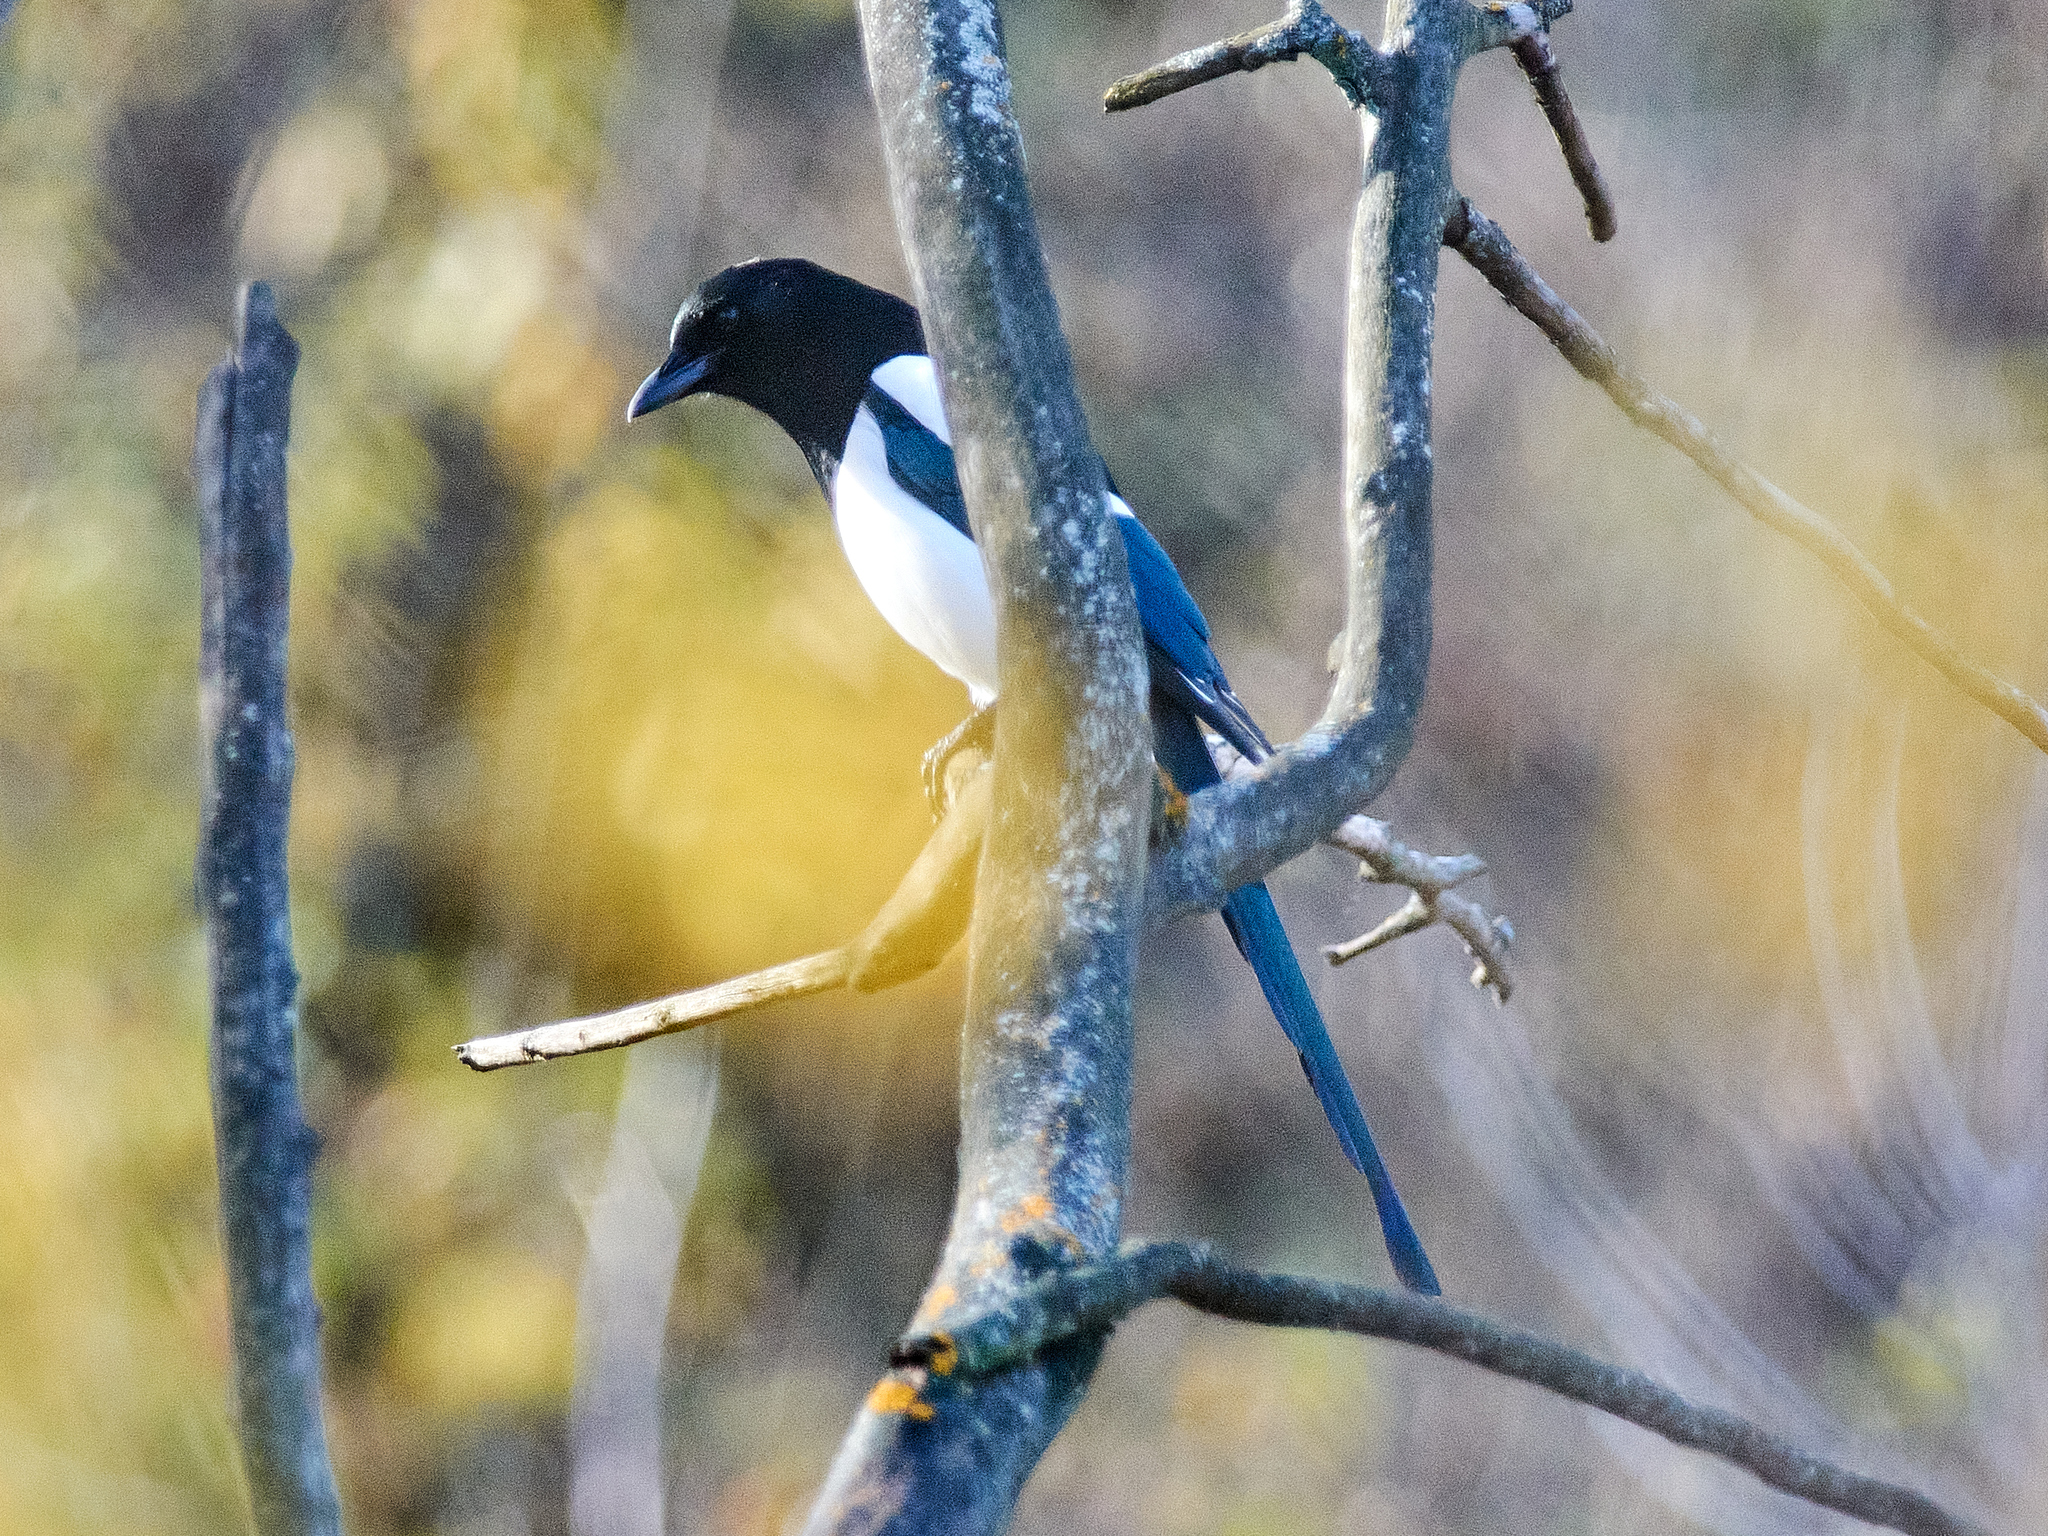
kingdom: Animalia
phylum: Chordata
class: Aves
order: Passeriformes
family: Corvidae
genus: Pica
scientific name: Pica pica
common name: Eurasian magpie
